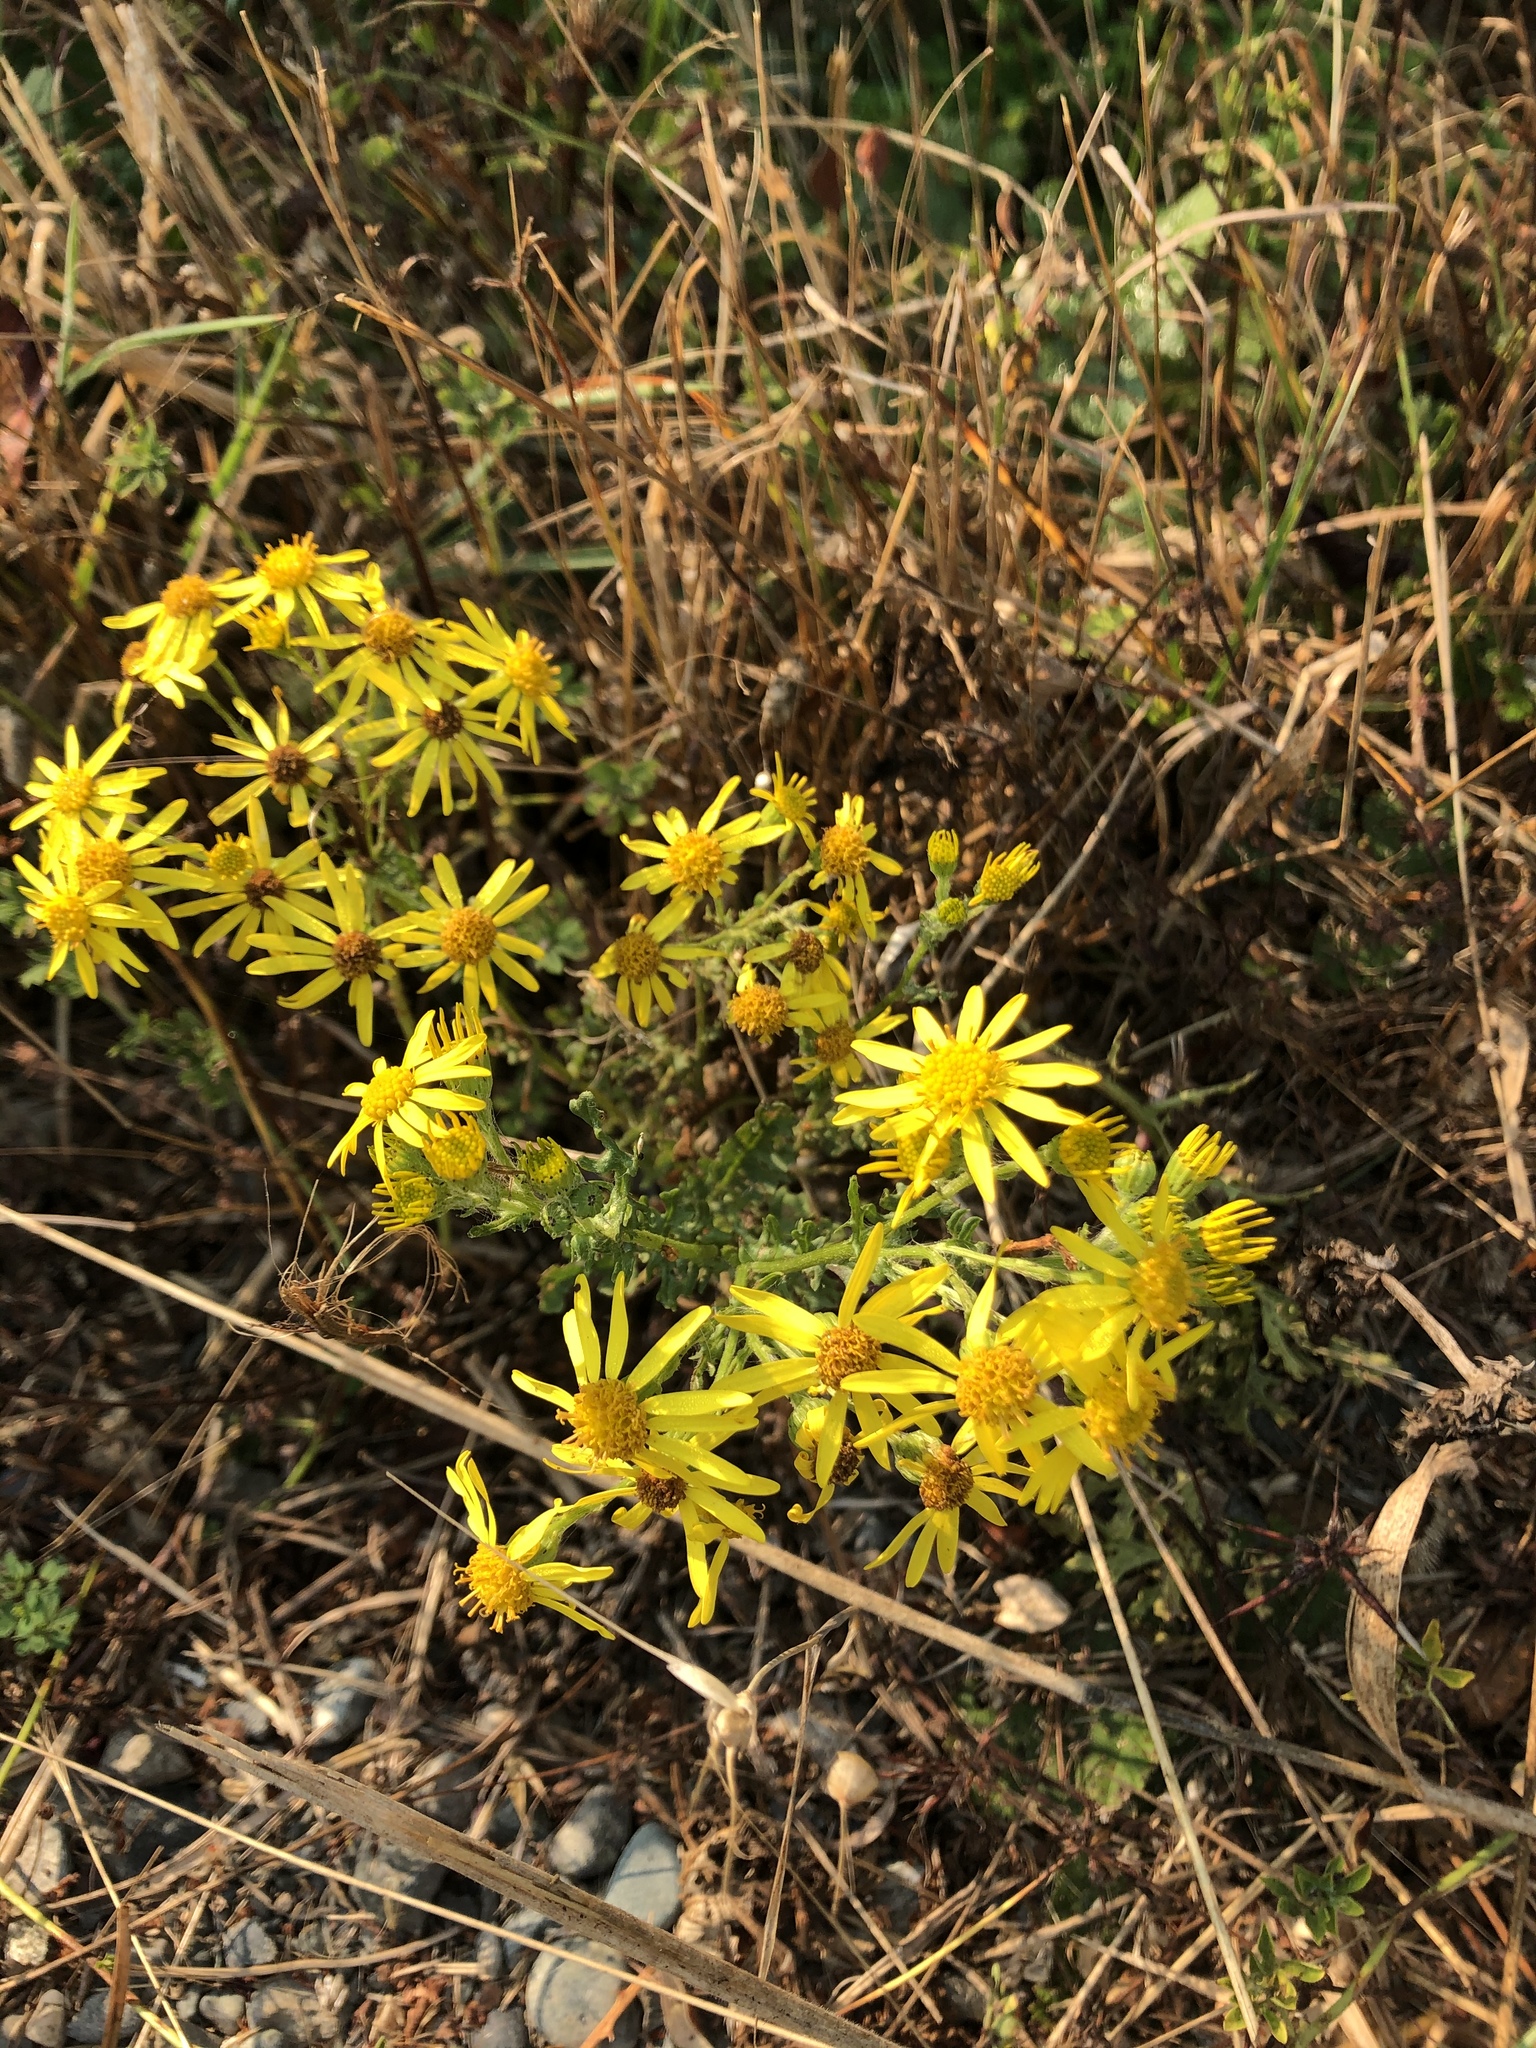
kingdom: Plantae
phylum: Tracheophyta
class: Magnoliopsida
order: Asterales
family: Asteraceae
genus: Jacobaea
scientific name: Jacobaea vulgaris
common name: Stinking willie
